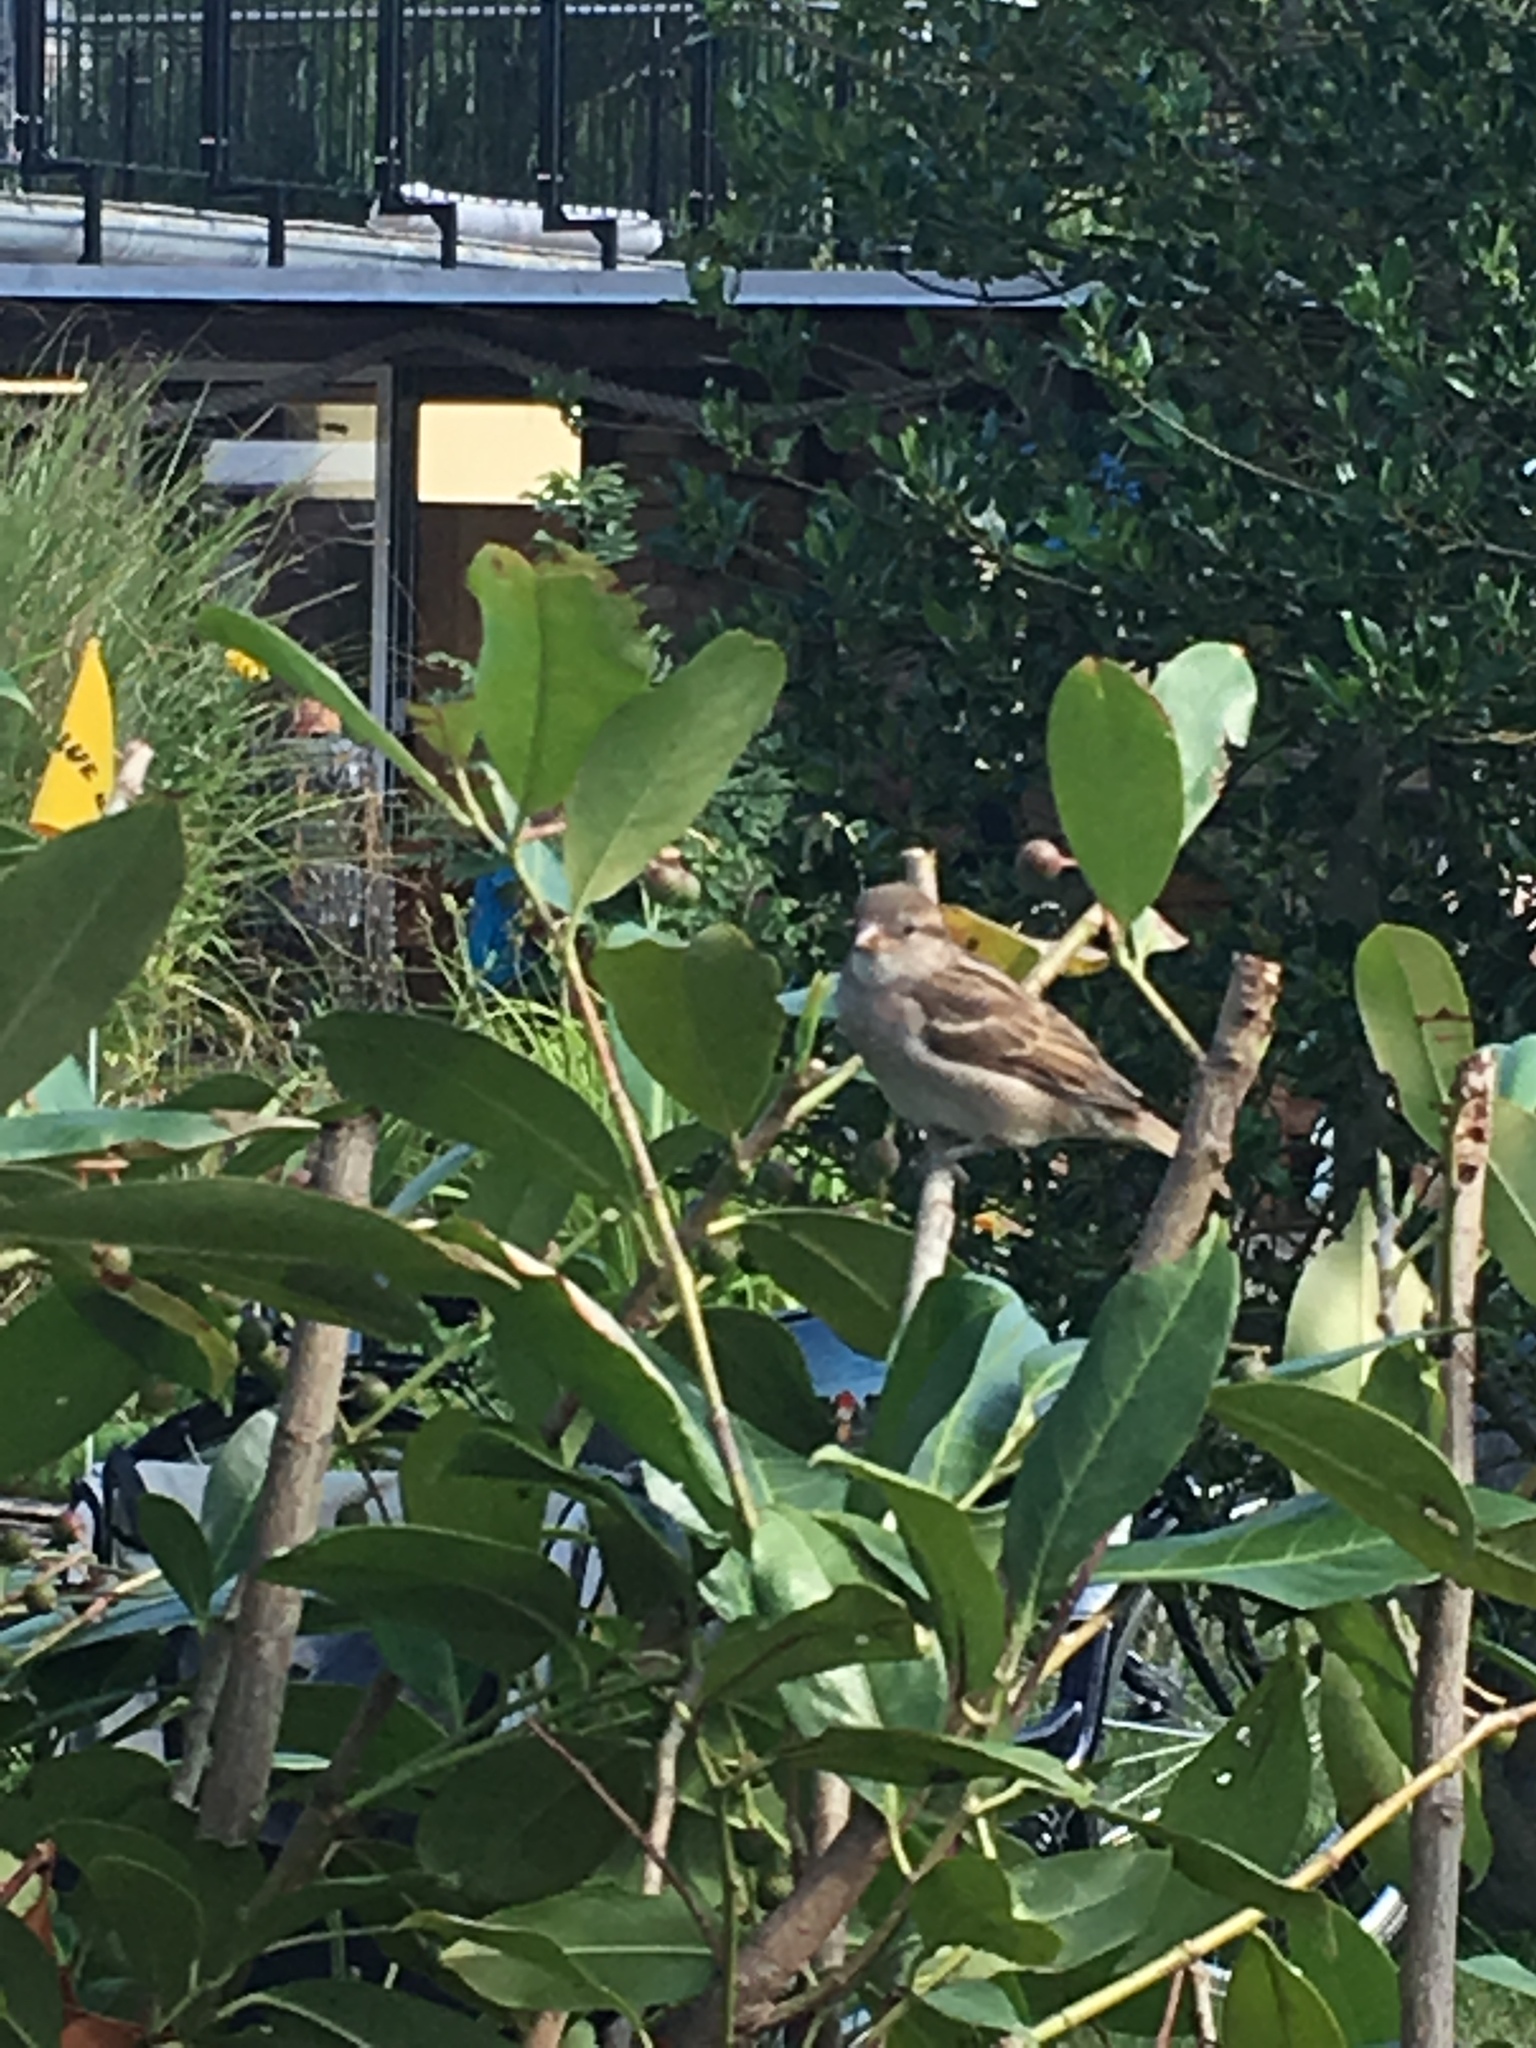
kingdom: Animalia
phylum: Chordata
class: Aves
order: Passeriformes
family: Passeridae
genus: Passer
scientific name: Passer domesticus
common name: House sparrow
